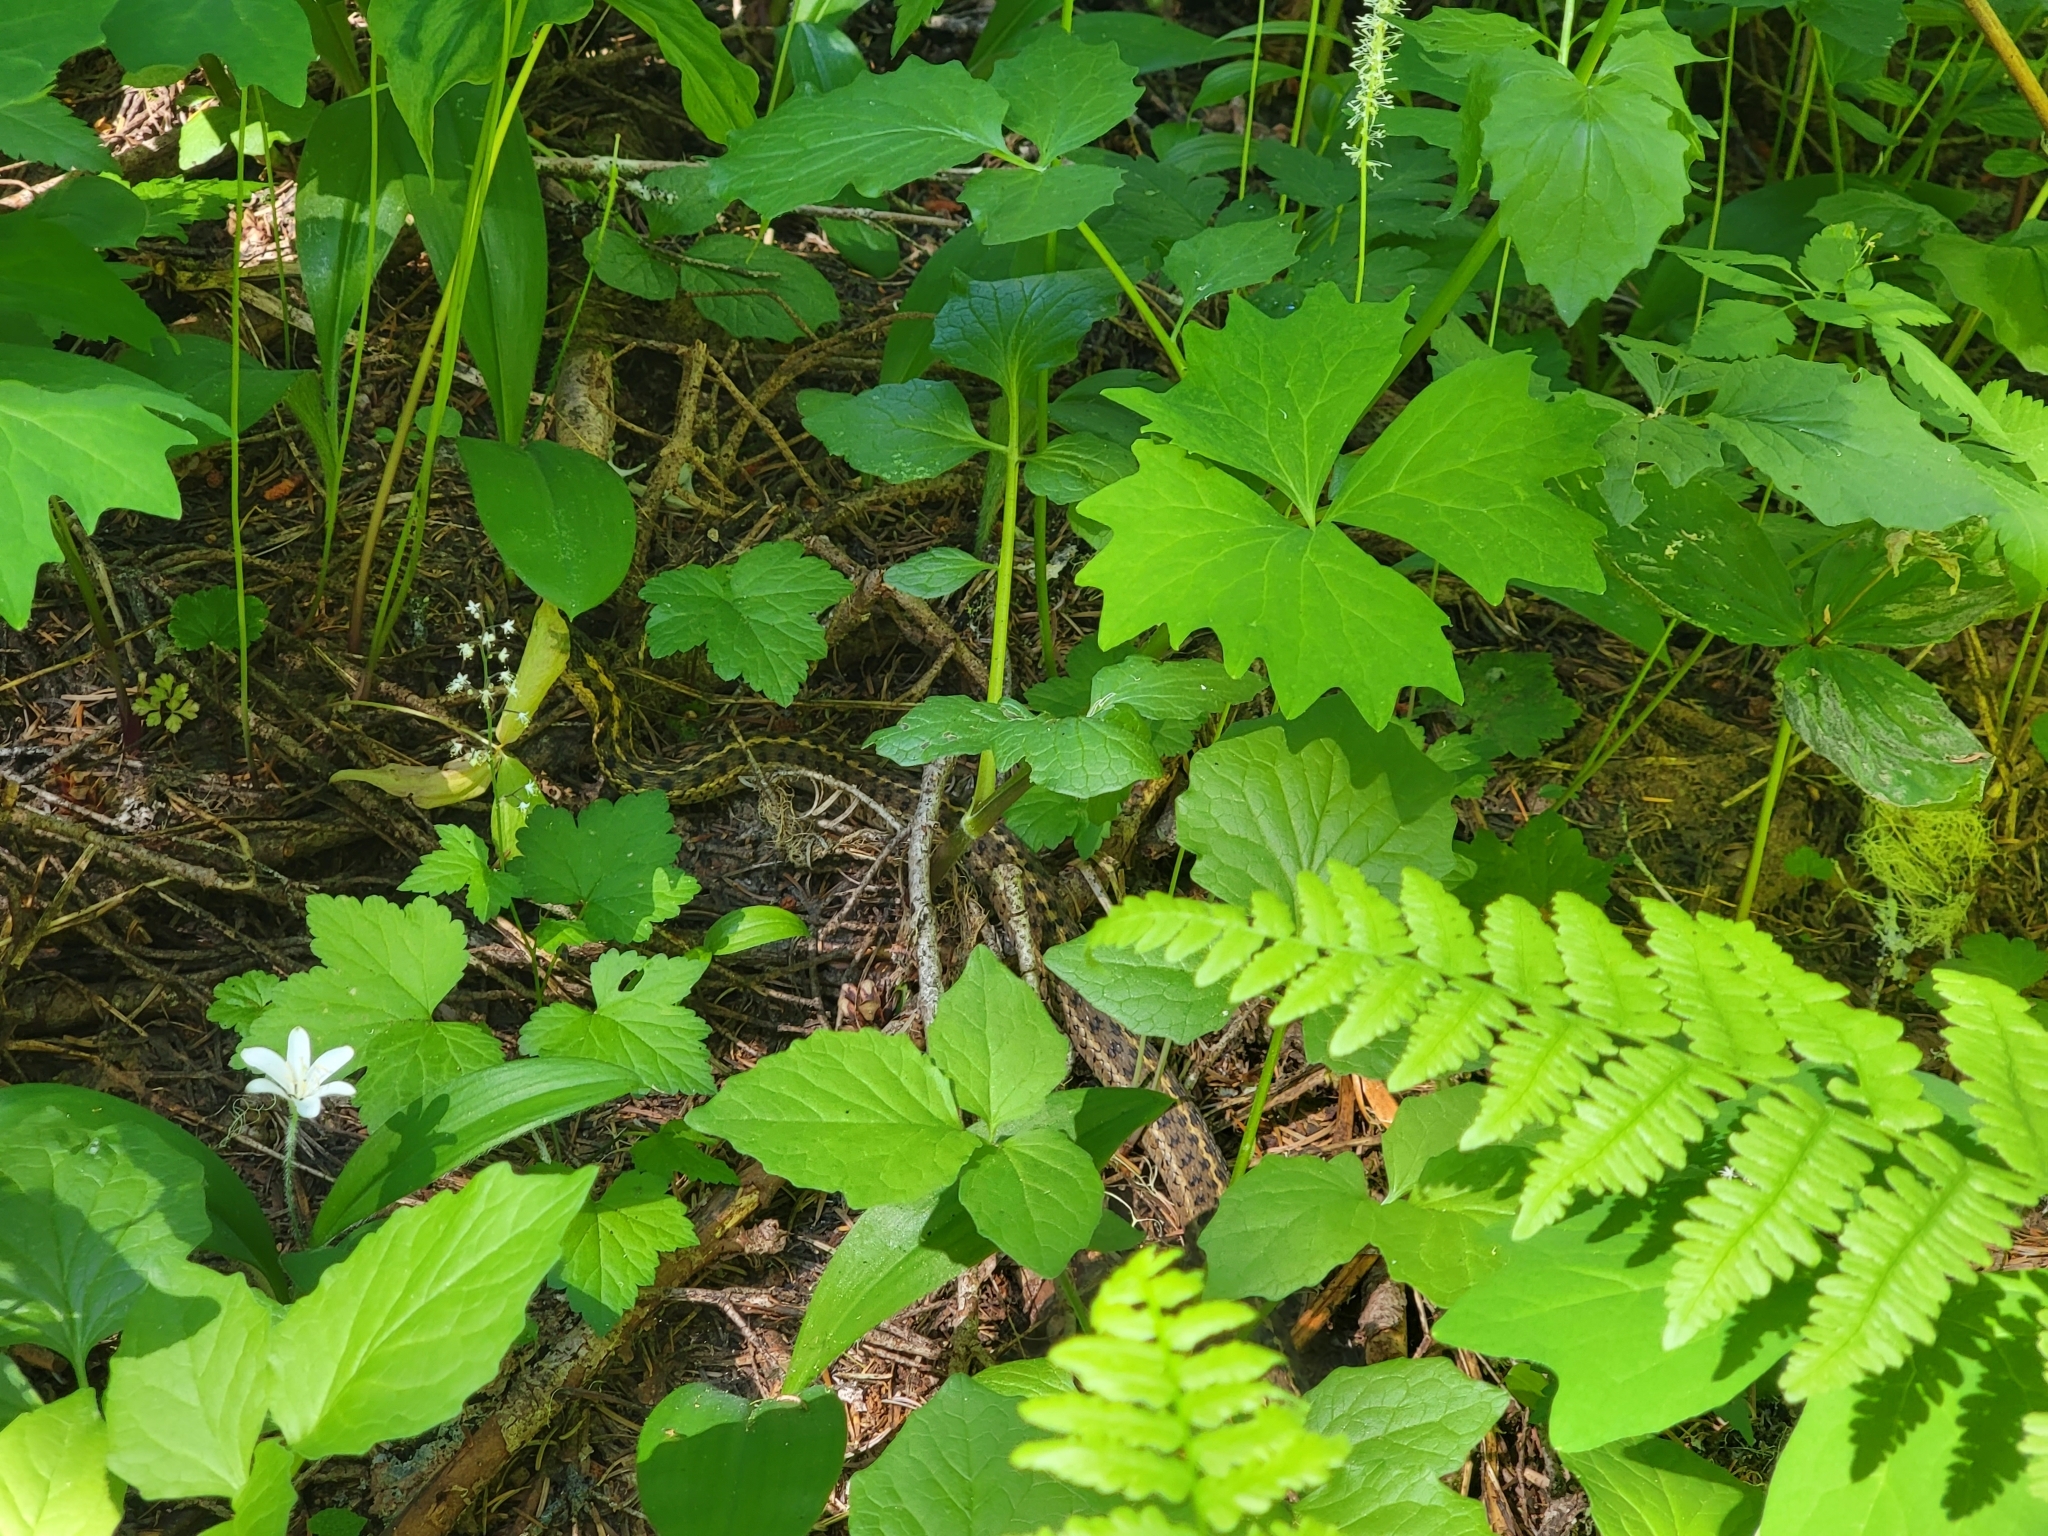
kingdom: Animalia
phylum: Chordata
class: Squamata
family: Colubridae
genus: Thamnophis
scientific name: Thamnophis elegans
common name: Western terrestrial garter snake
